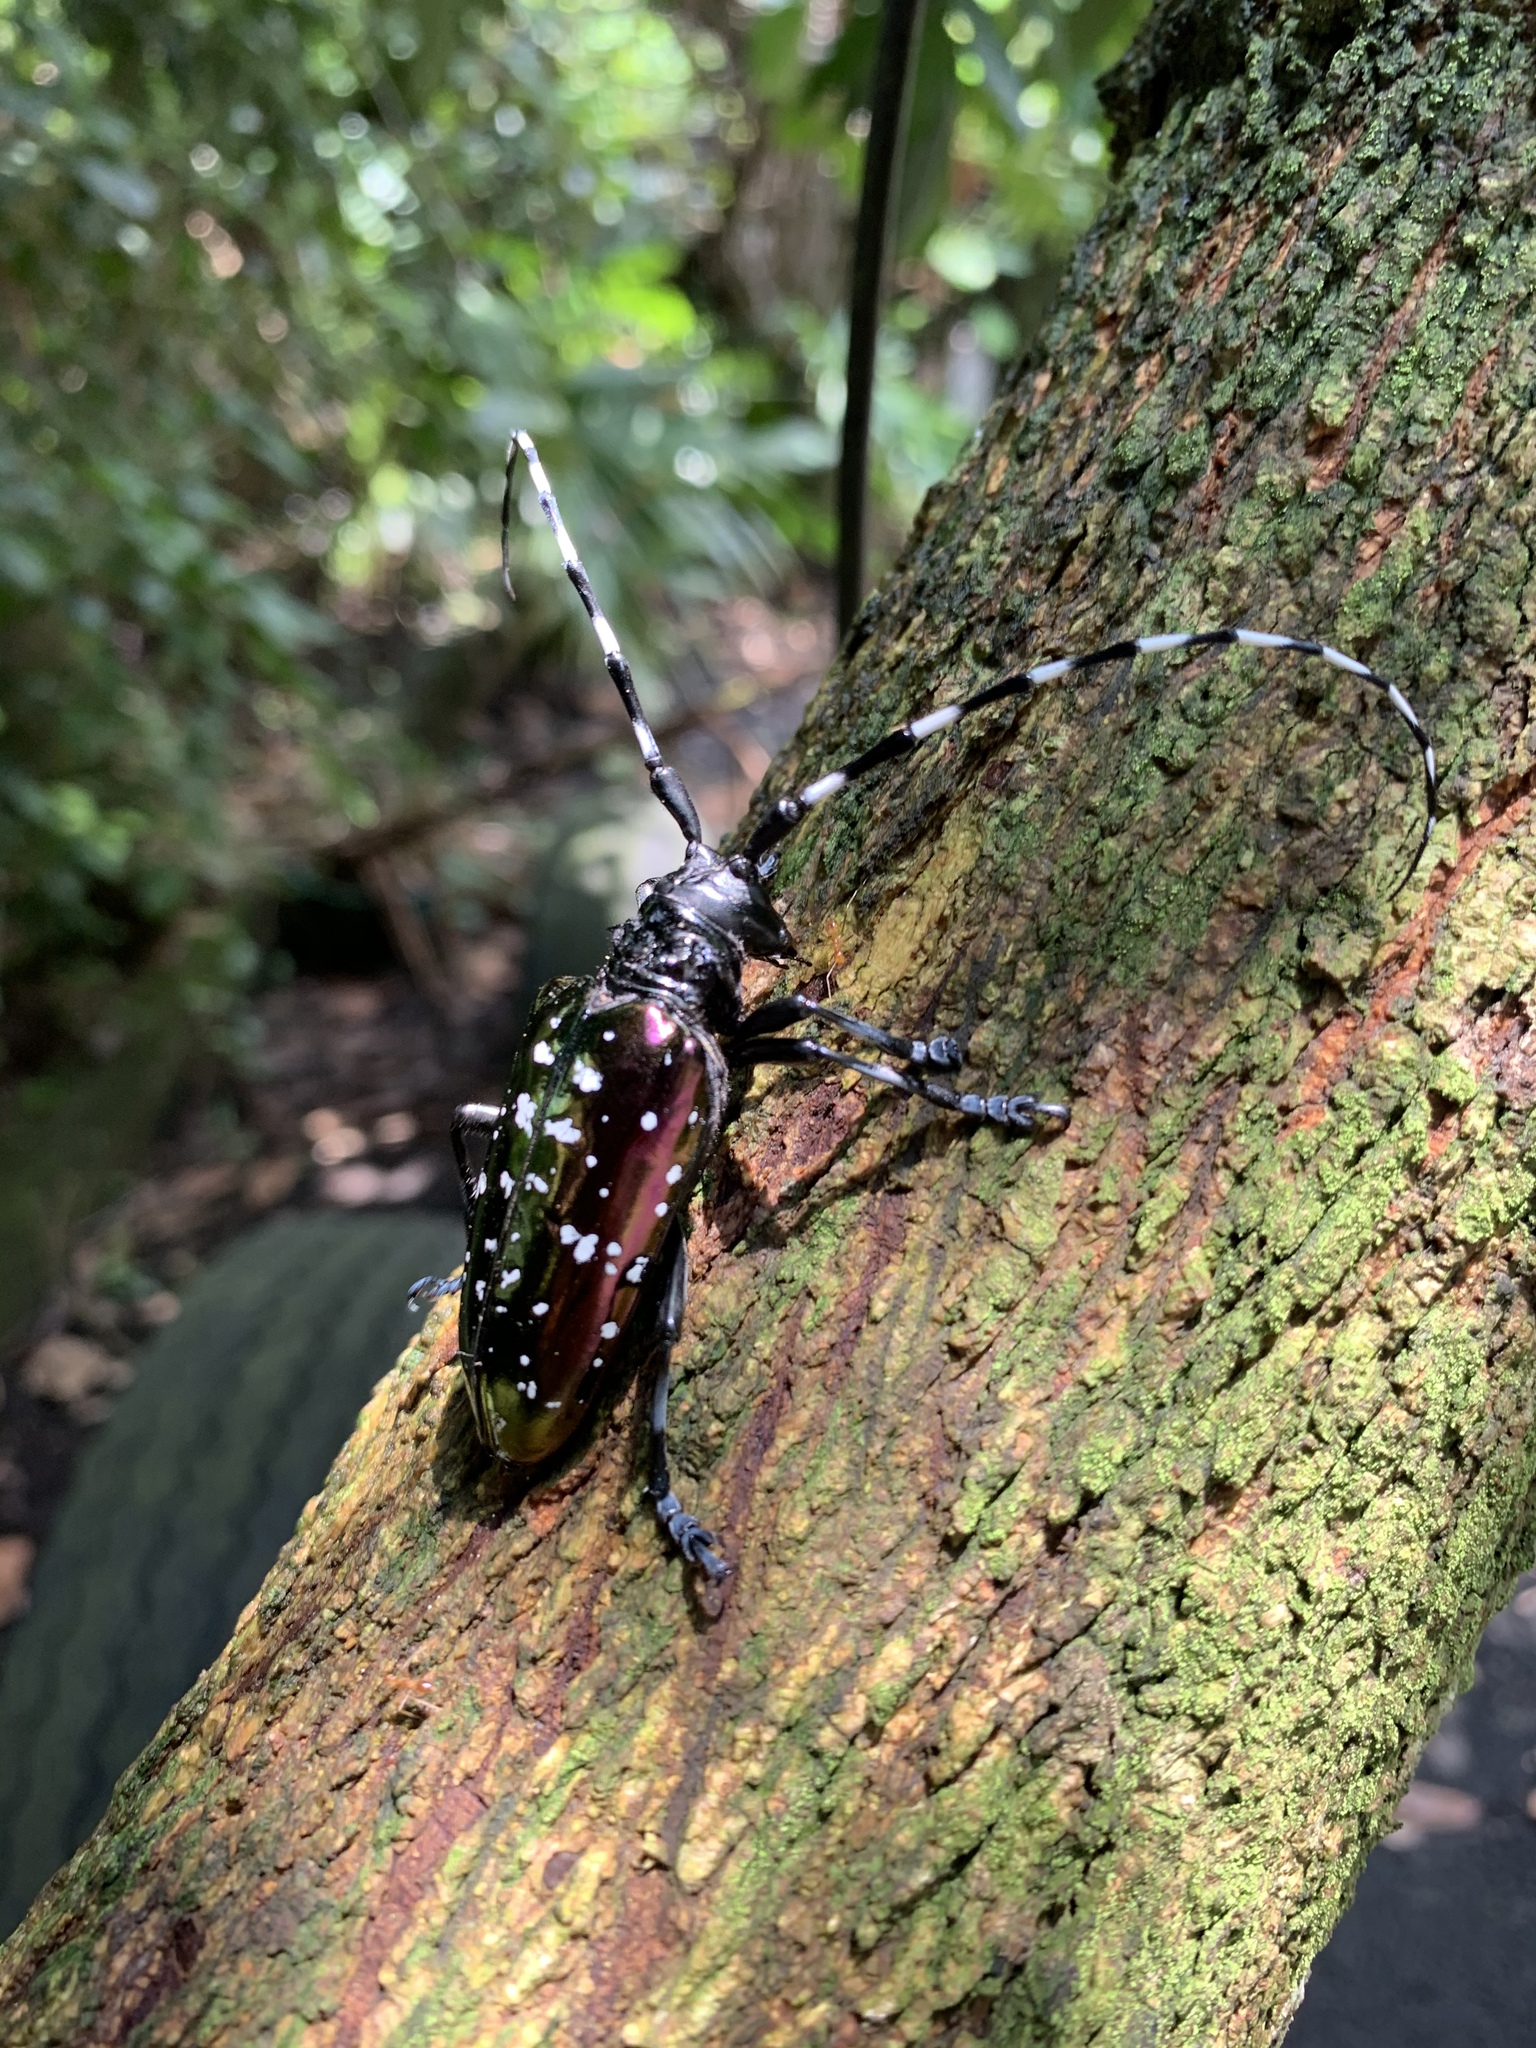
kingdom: Animalia
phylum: Arthropoda
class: Insecta
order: Coleoptera
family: Cerambycidae
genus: Anoplophora
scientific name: Anoplophora albopicta
